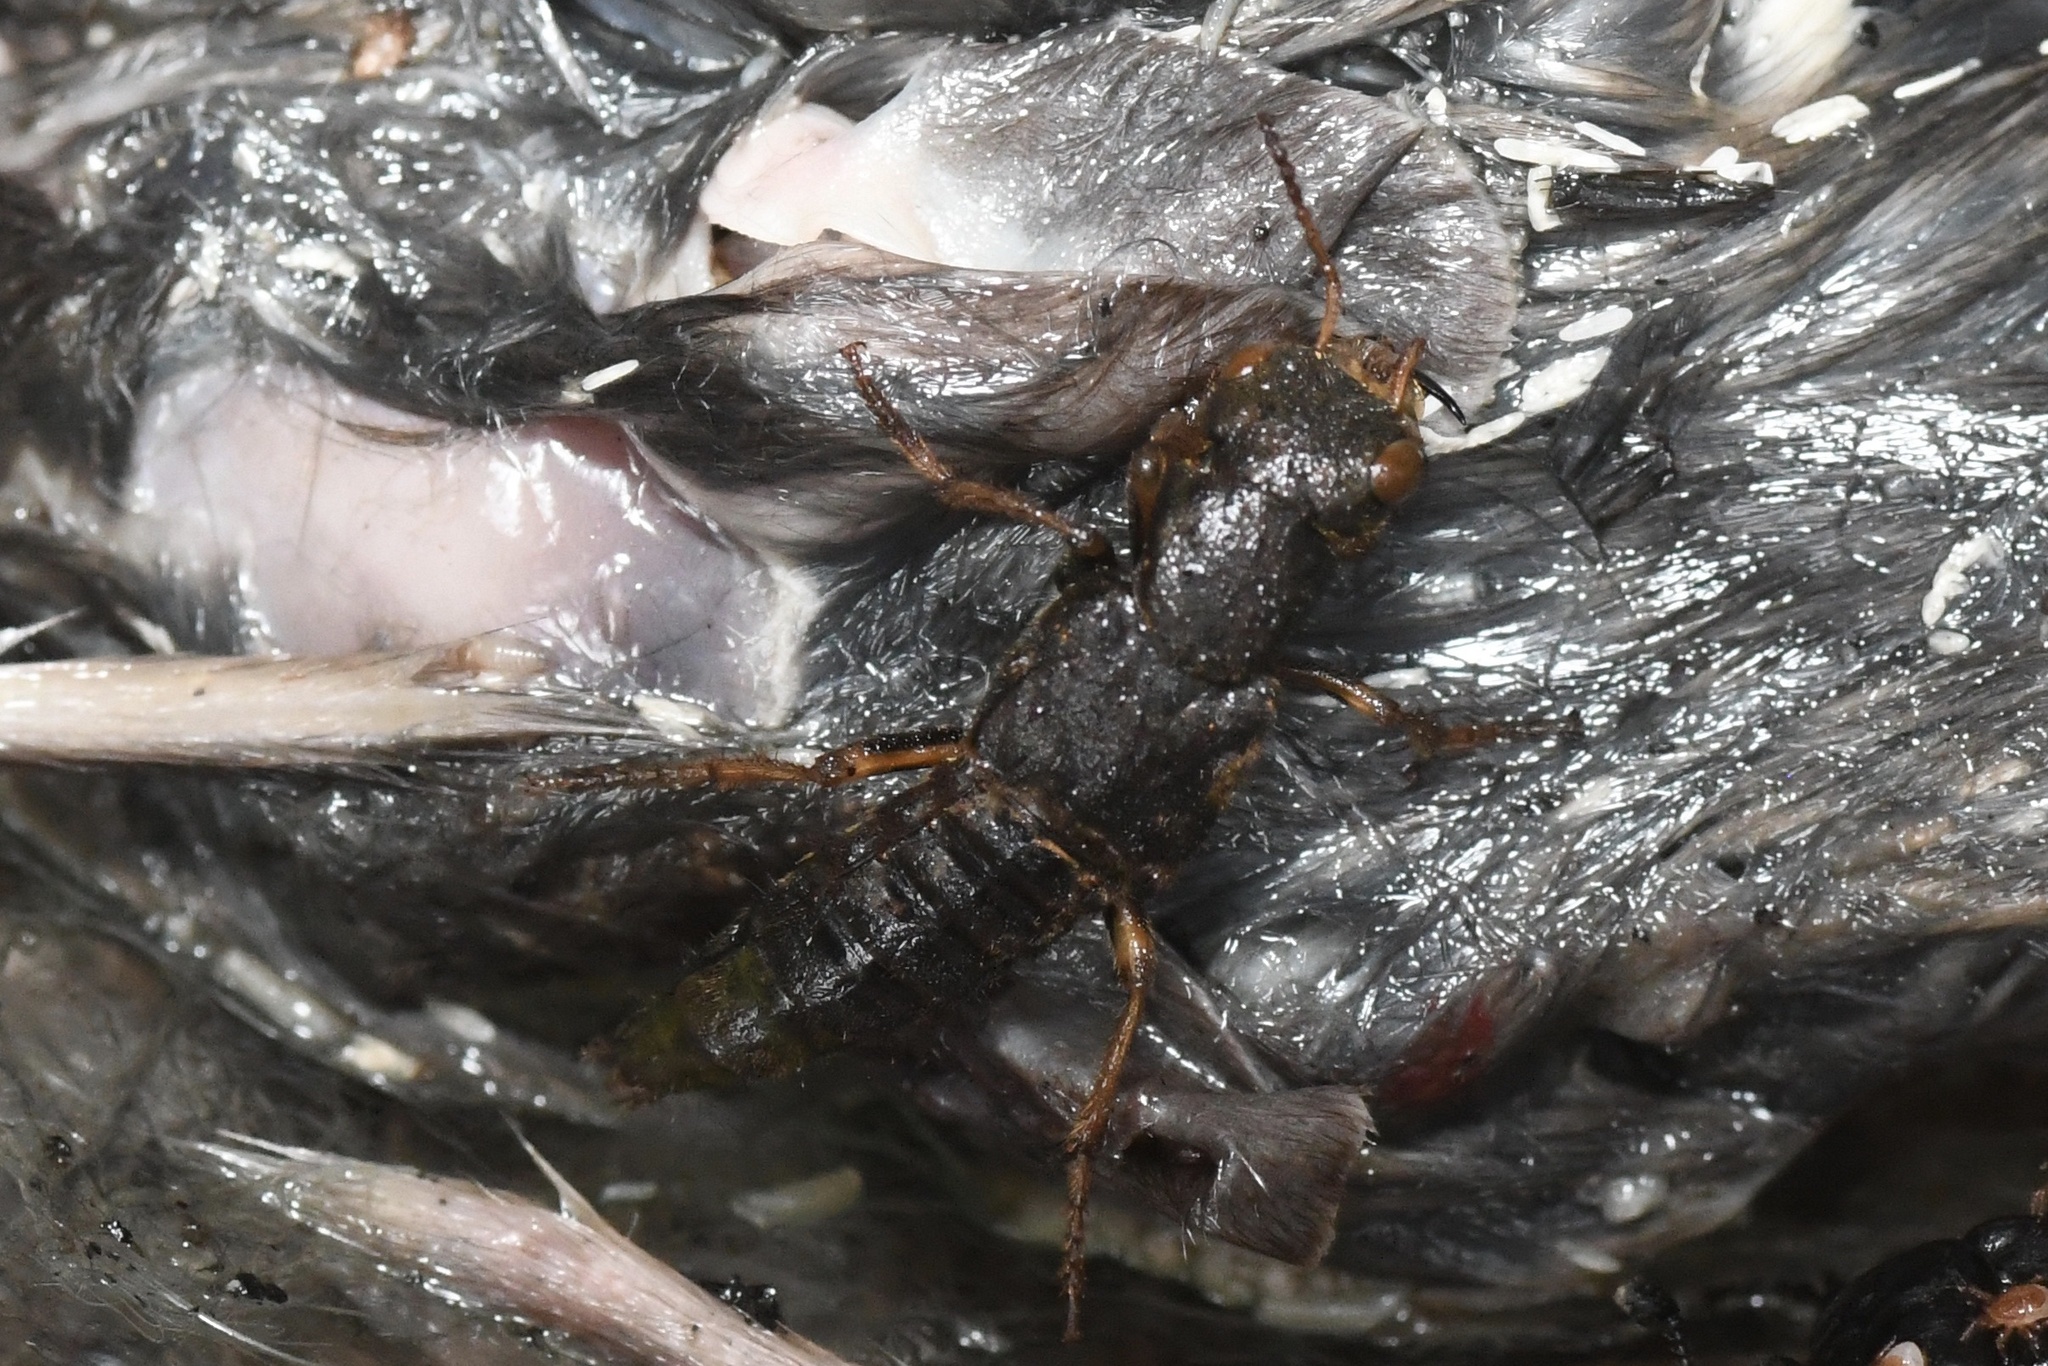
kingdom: Animalia
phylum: Arthropoda
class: Insecta
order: Coleoptera
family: Staphylinidae
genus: Ontholestes
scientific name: Ontholestes cingulatus
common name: Gold-and-brown rove beetle
